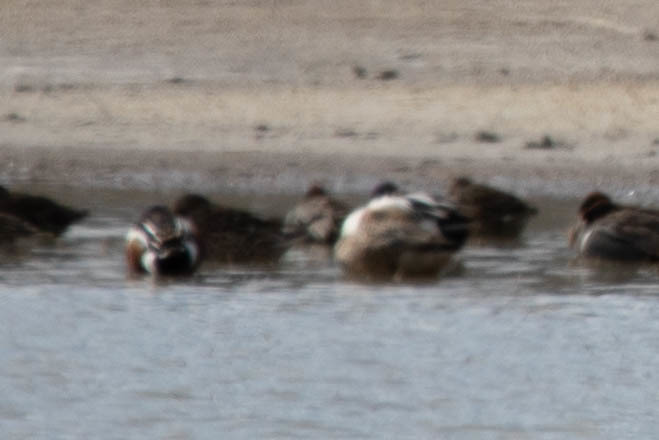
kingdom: Animalia
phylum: Chordata
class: Aves
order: Anseriformes
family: Anatidae
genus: Spatula
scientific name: Spatula clypeata
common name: Northern shoveler
